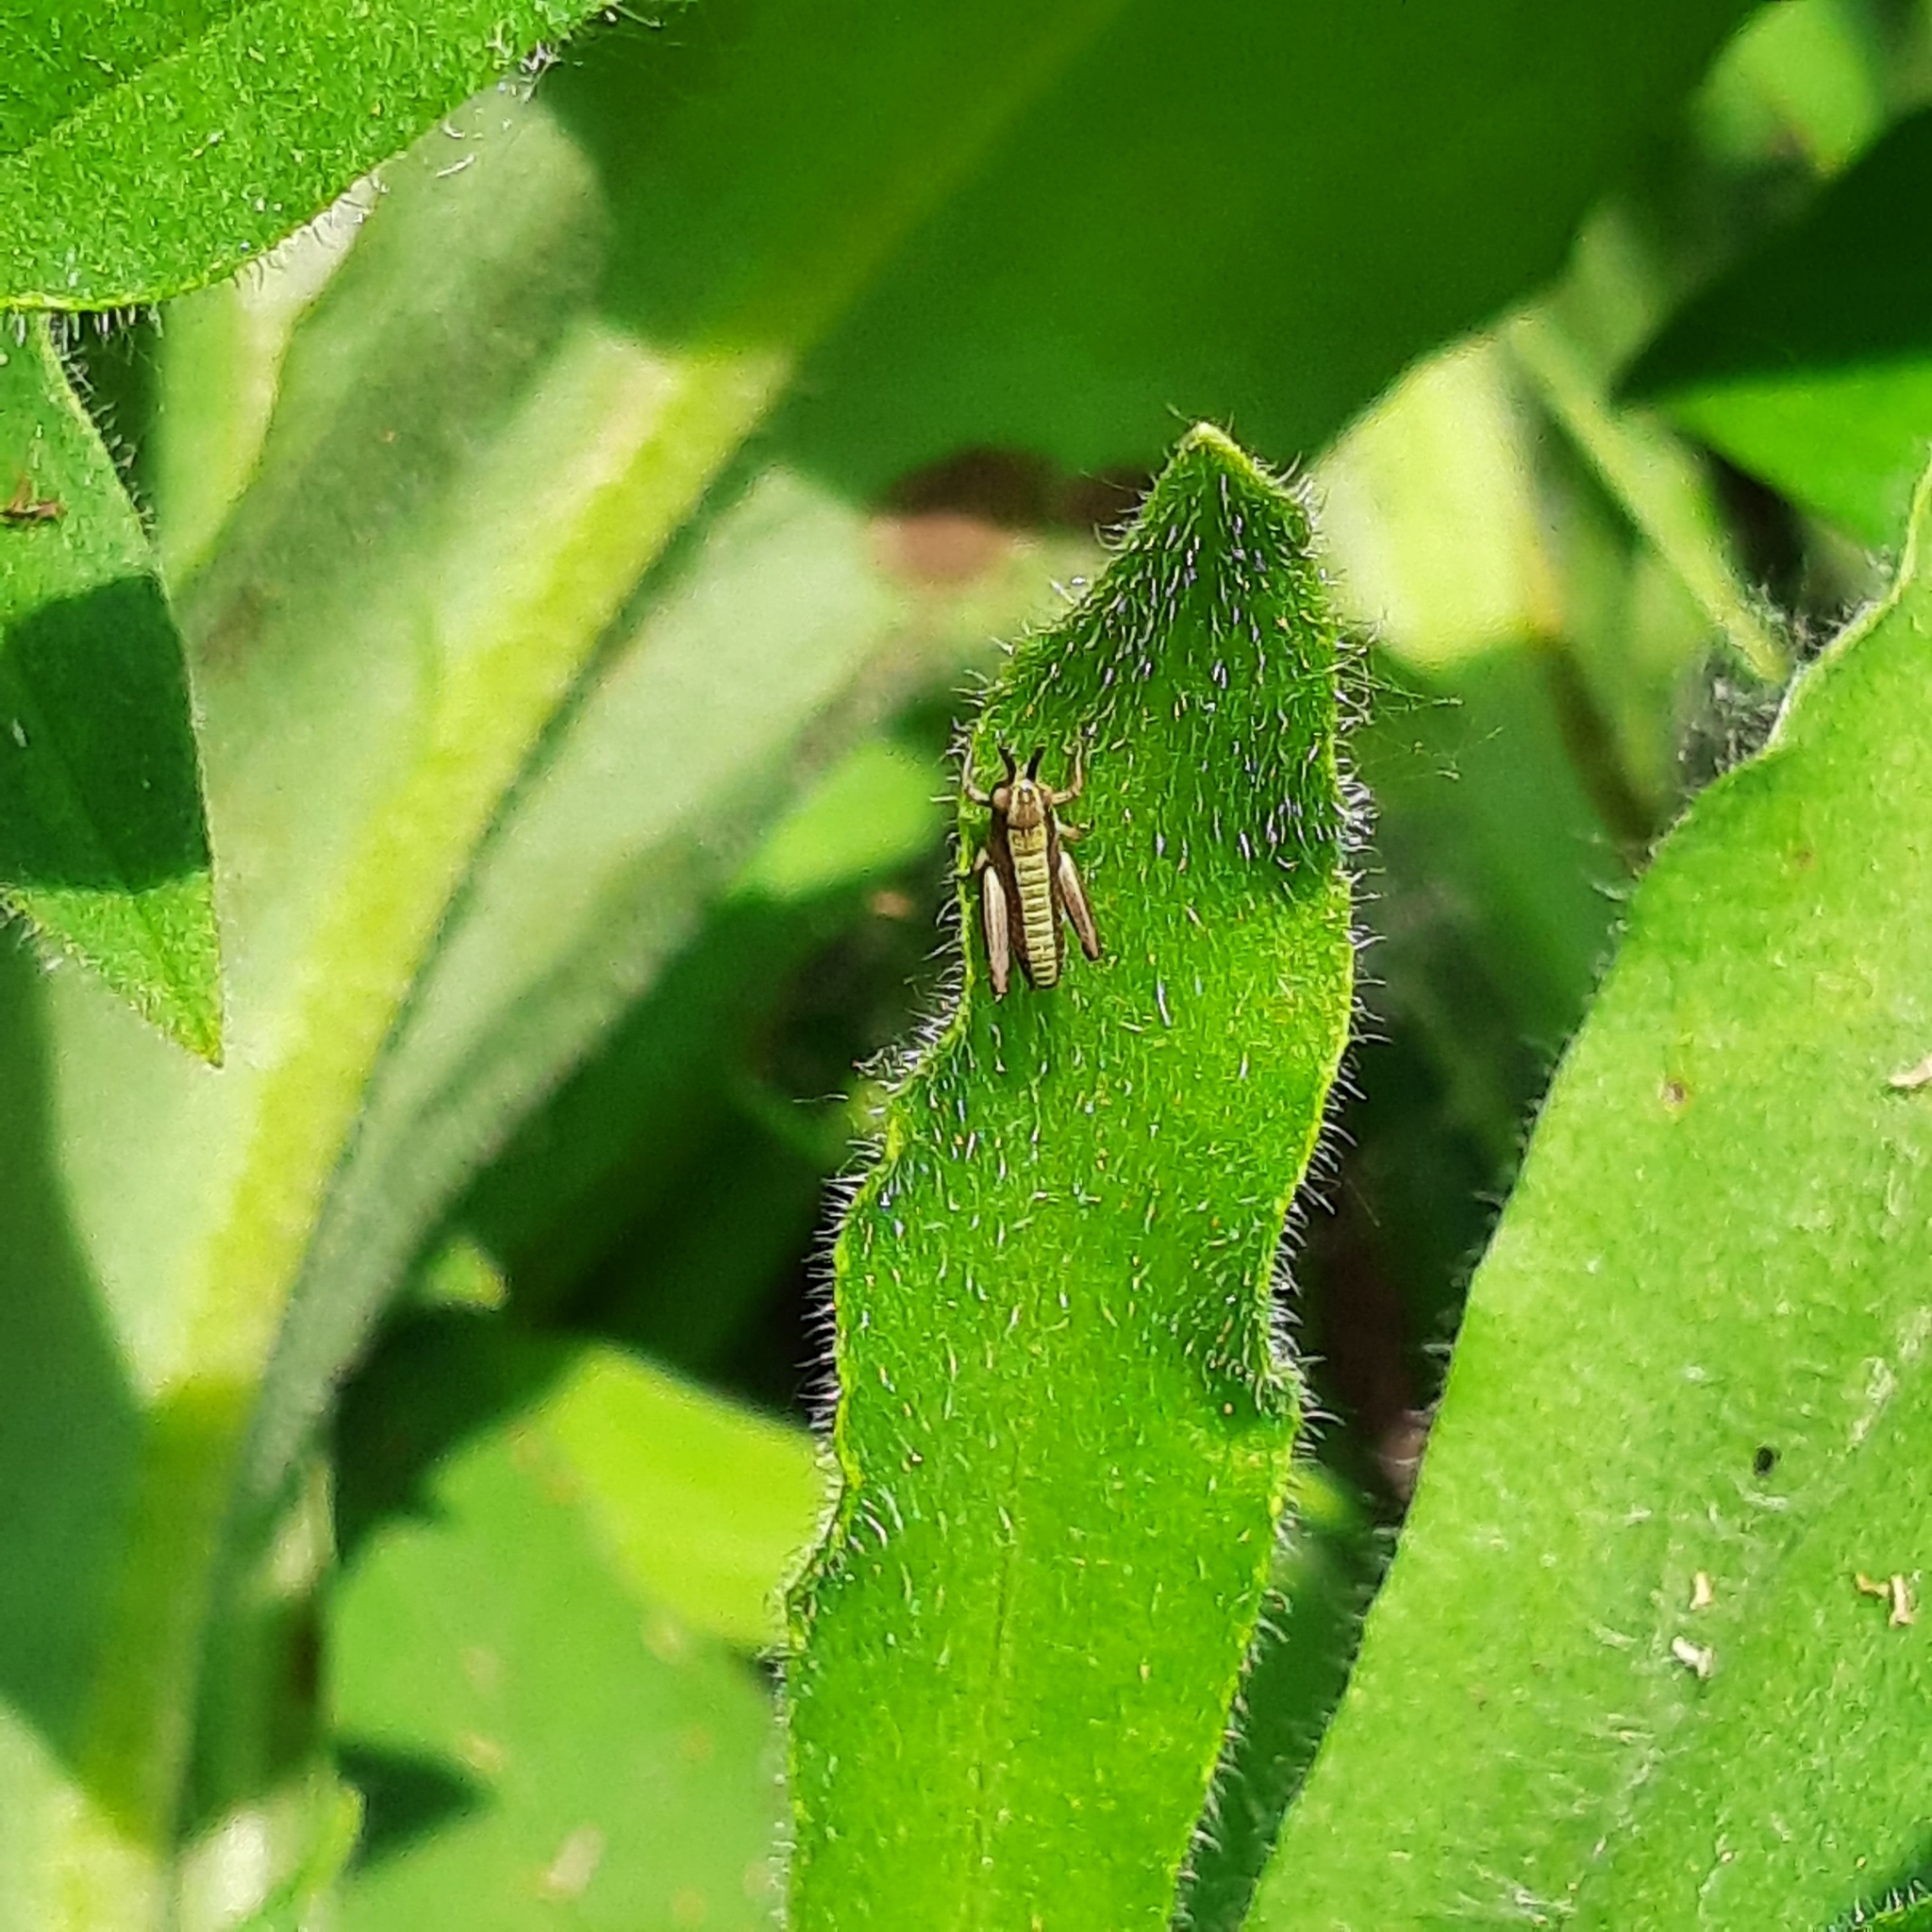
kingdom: Animalia
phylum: Arthropoda
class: Insecta
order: Orthoptera
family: Acrididae
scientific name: Acrididae
